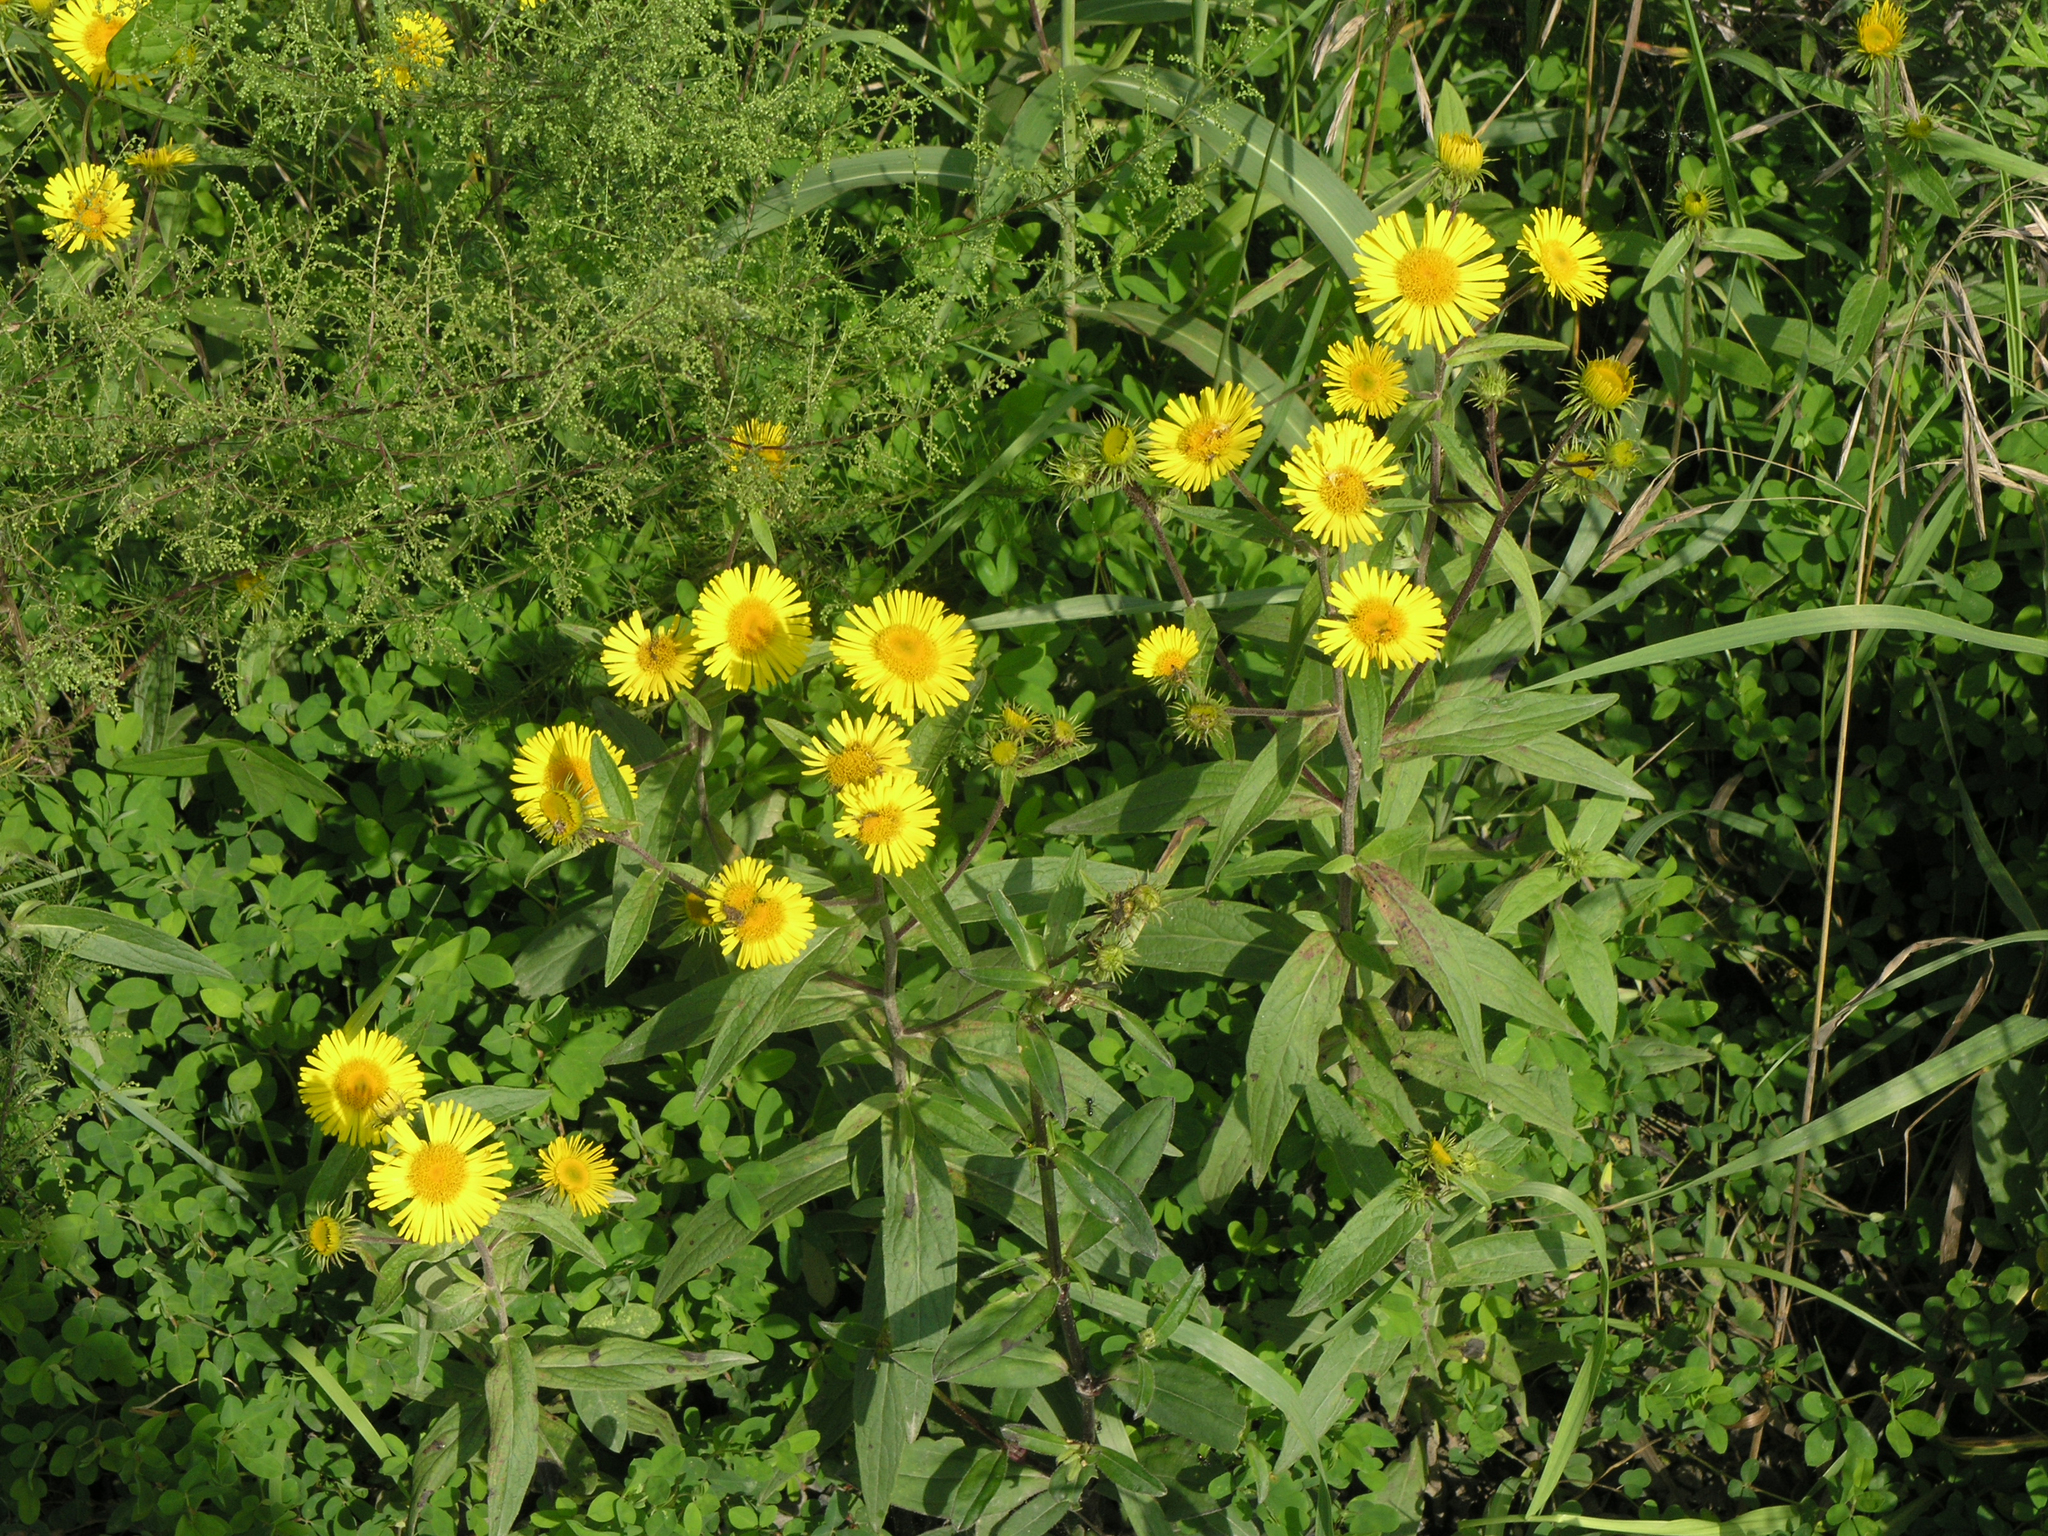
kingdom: Plantae
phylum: Tracheophyta
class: Magnoliopsida
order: Asterales
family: Asteraceae
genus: Inula
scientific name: Inula japonica
